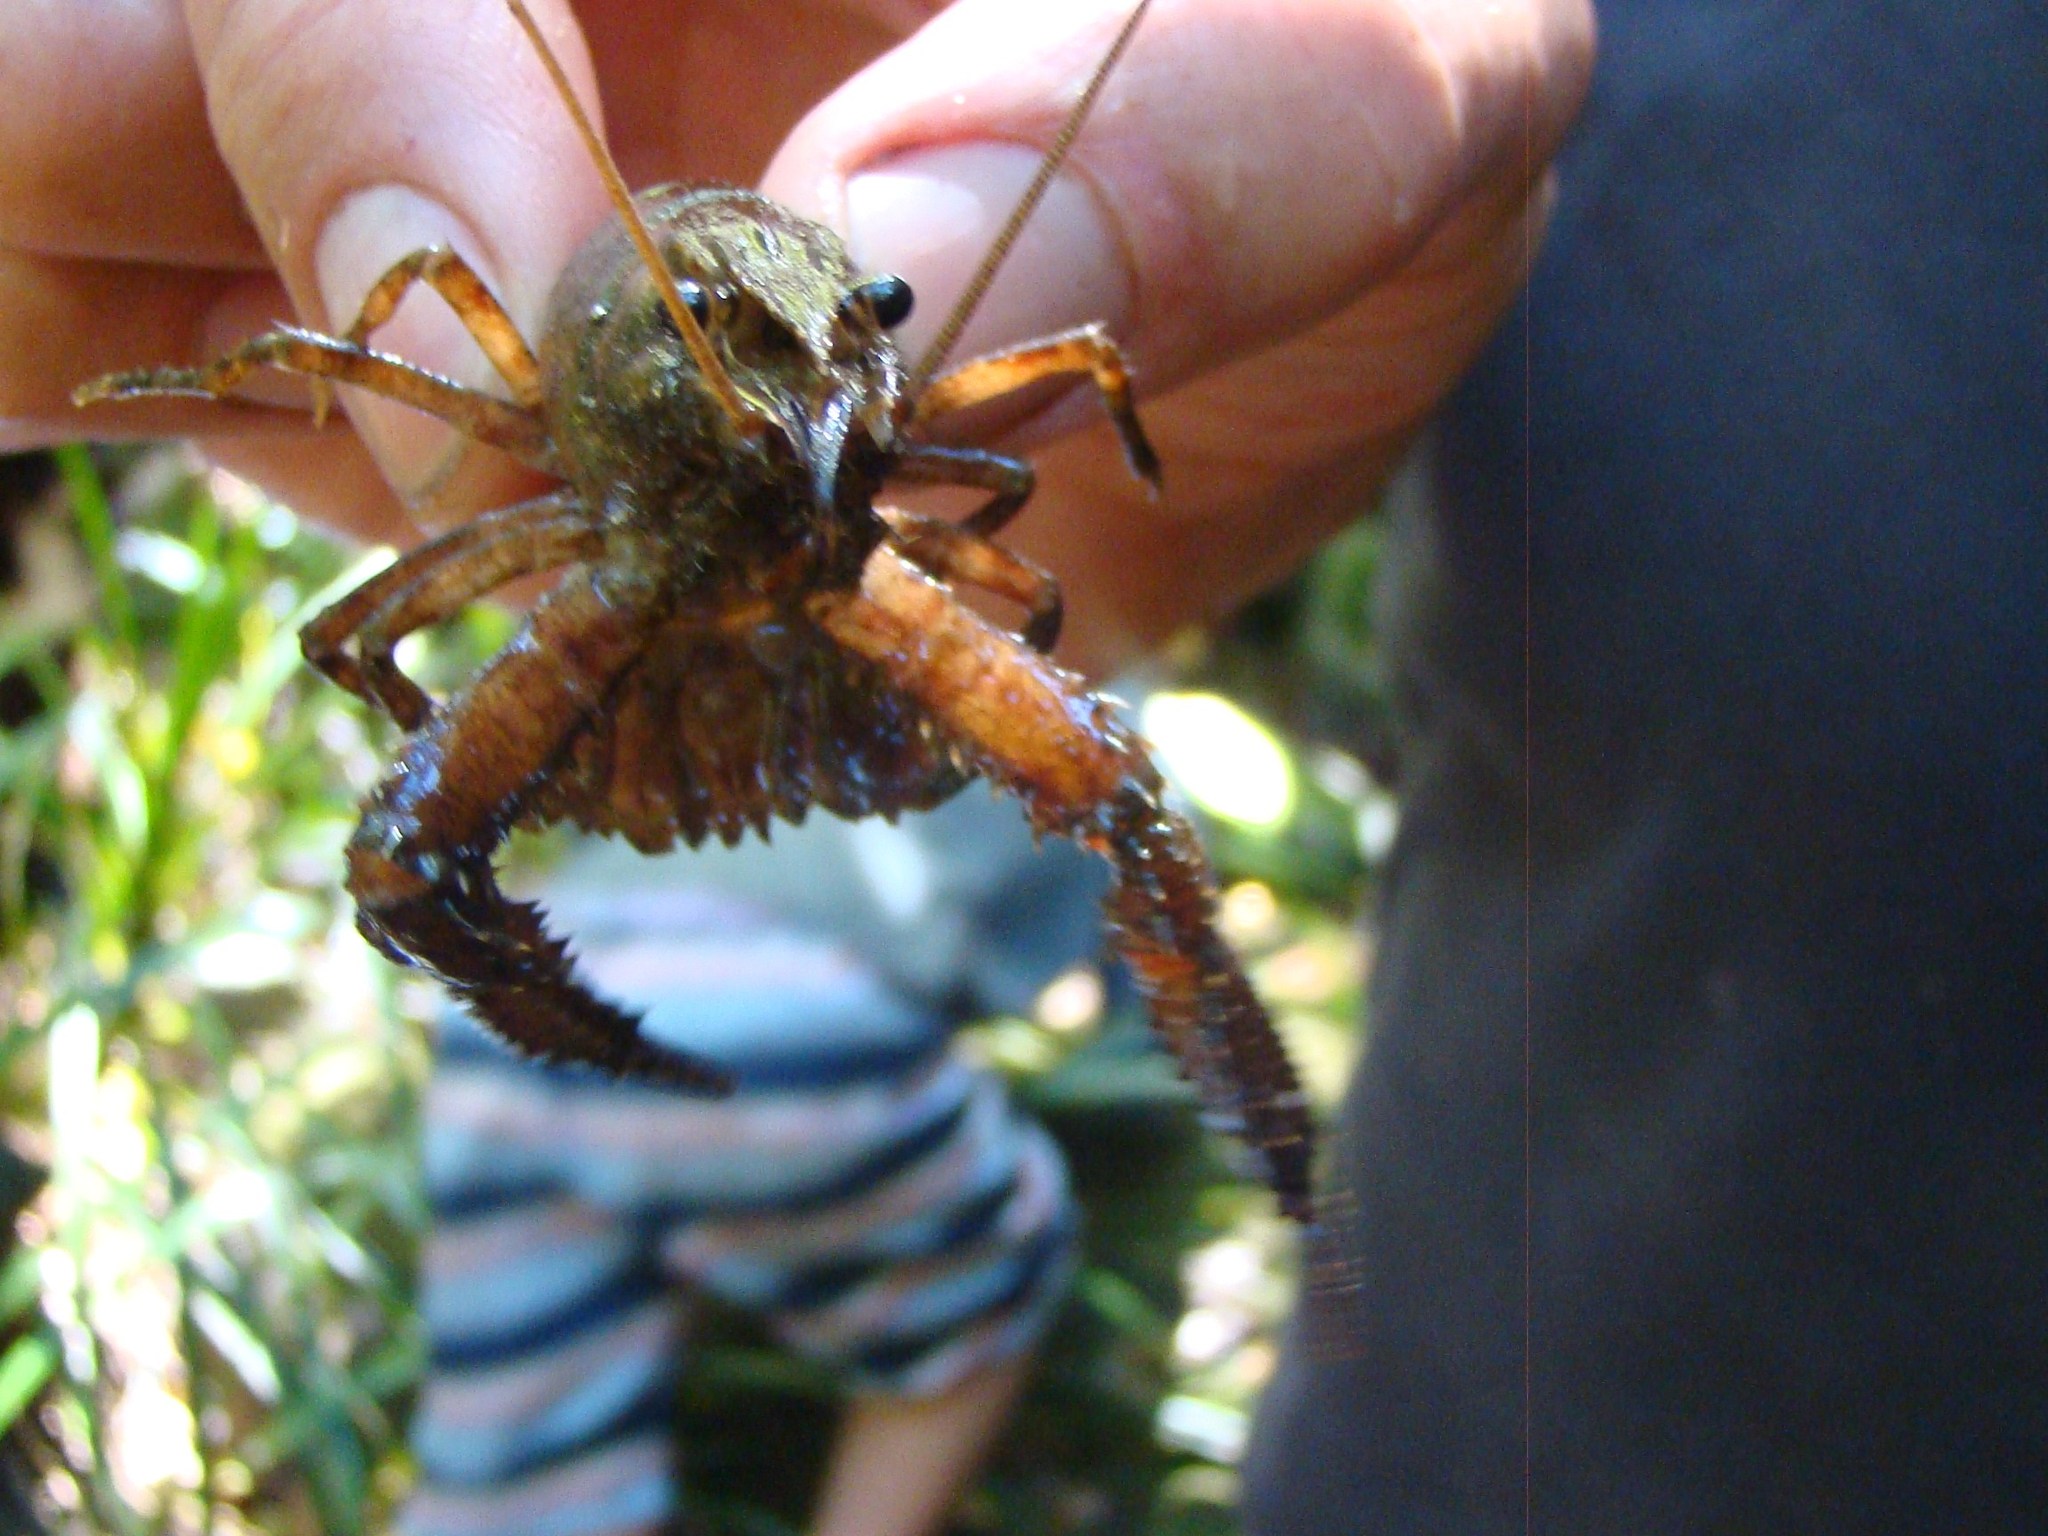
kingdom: Animalia
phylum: Arthropoda
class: Malacostraca
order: Decapoda
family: Parastacidae
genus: Paranephrops
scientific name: Paranephrops planifrons
